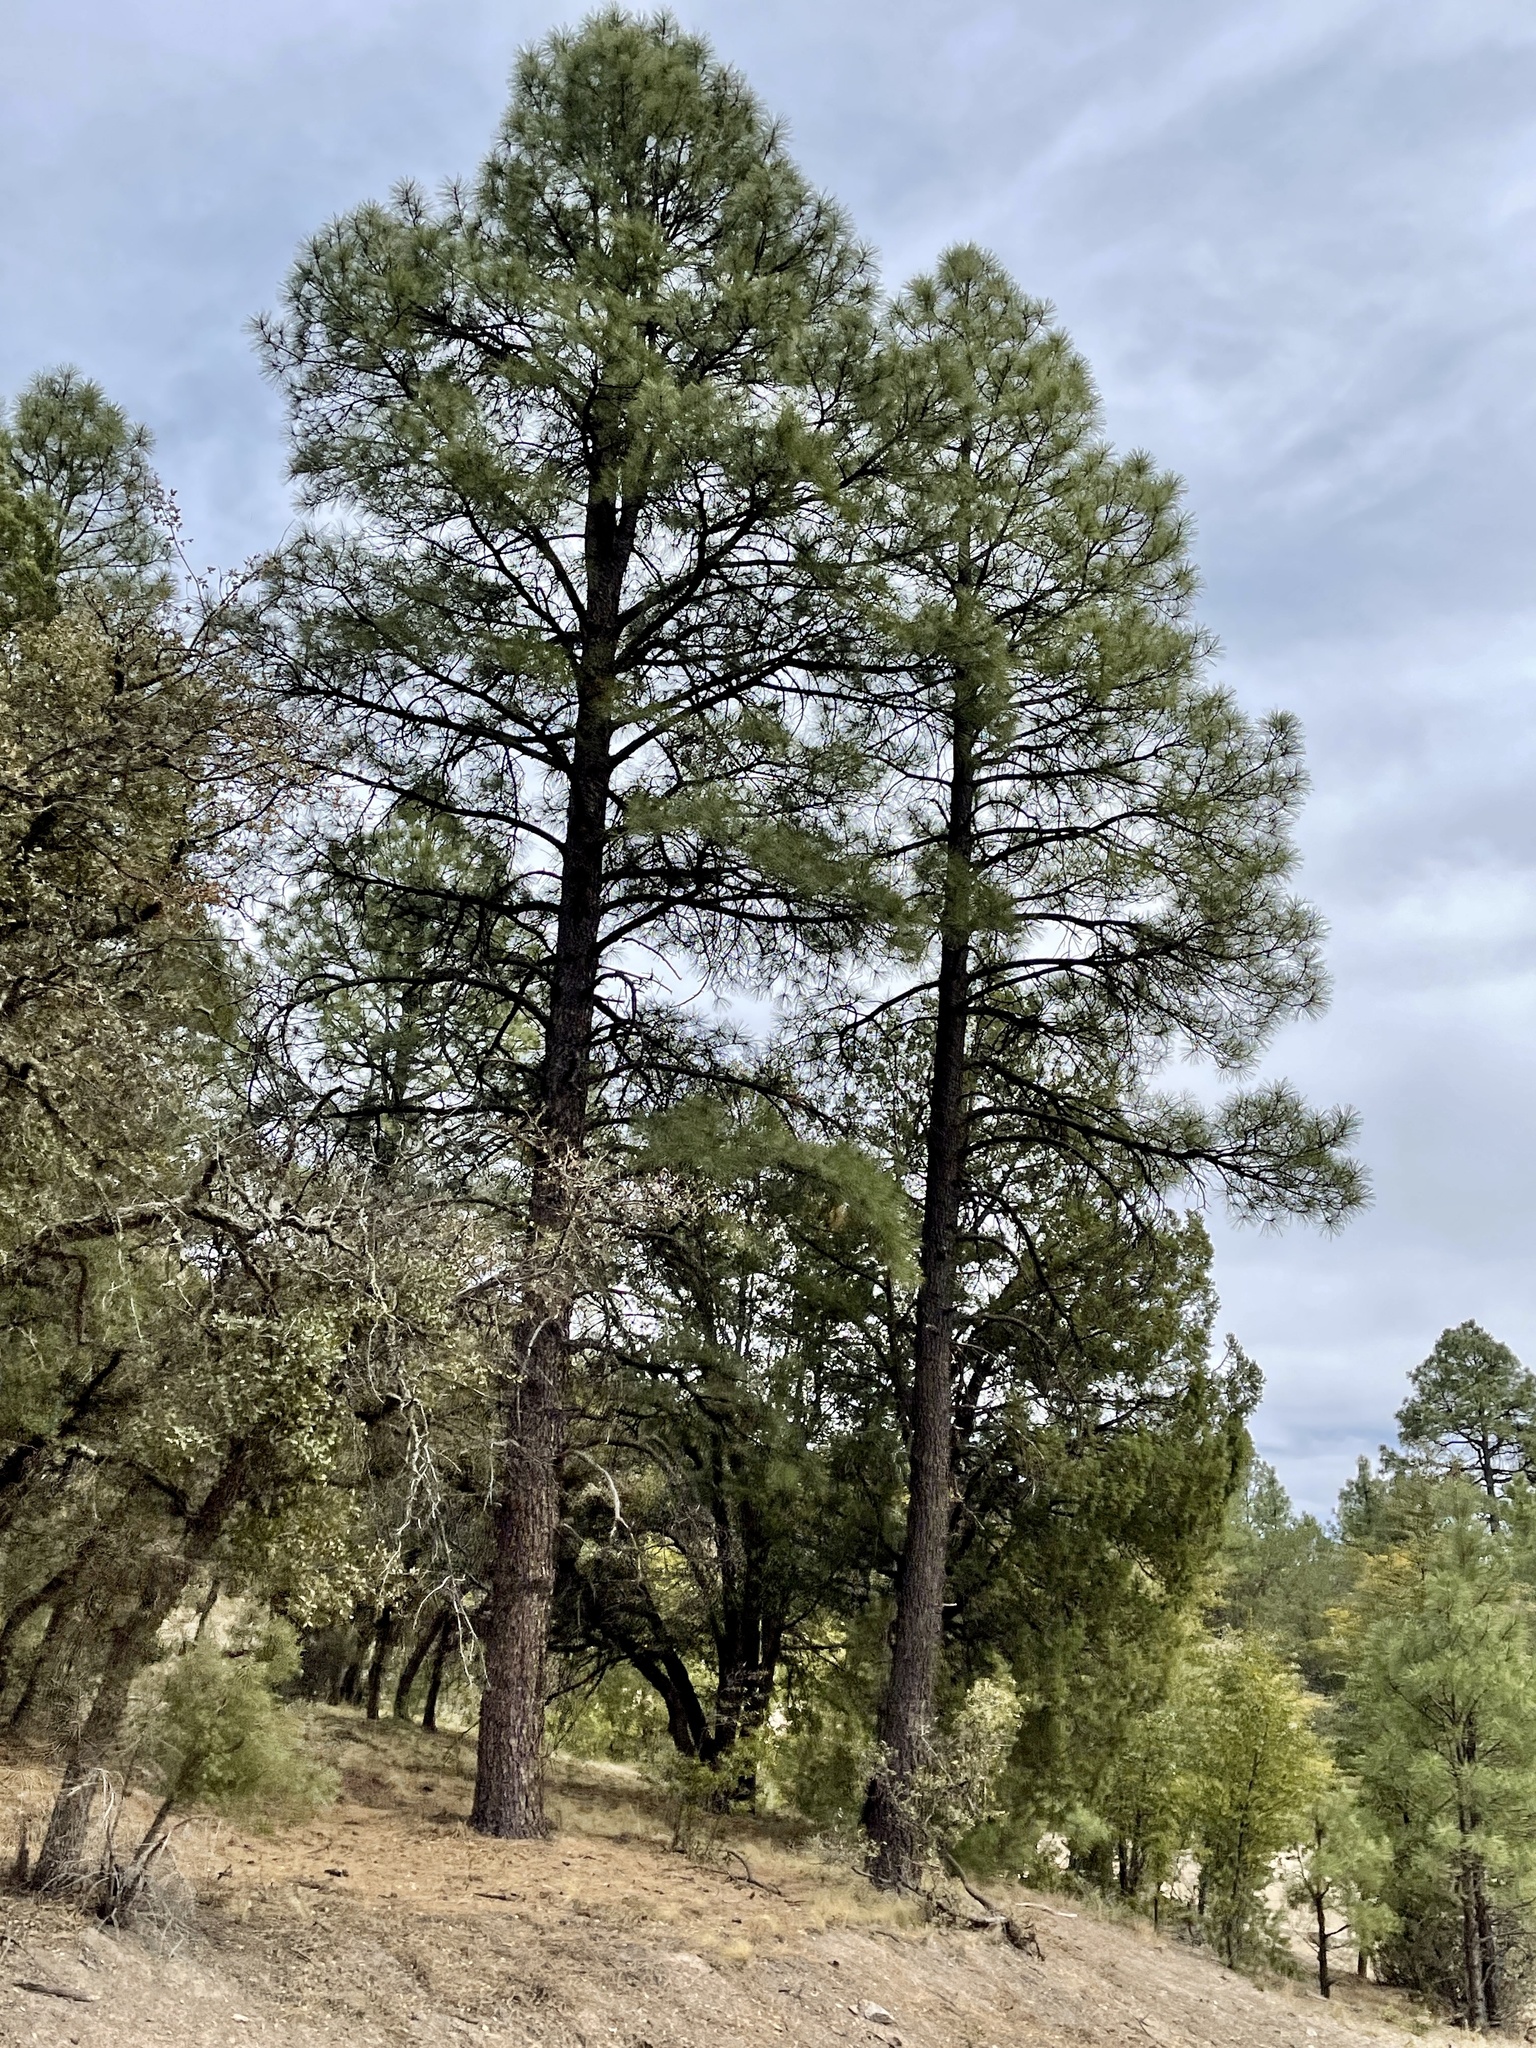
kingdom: Plantae
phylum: Tracheophyta
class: Pinopsida
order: Pinales
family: Pinaceae
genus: Pinus
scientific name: Pinus ponderosa
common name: Western yellow-pine
